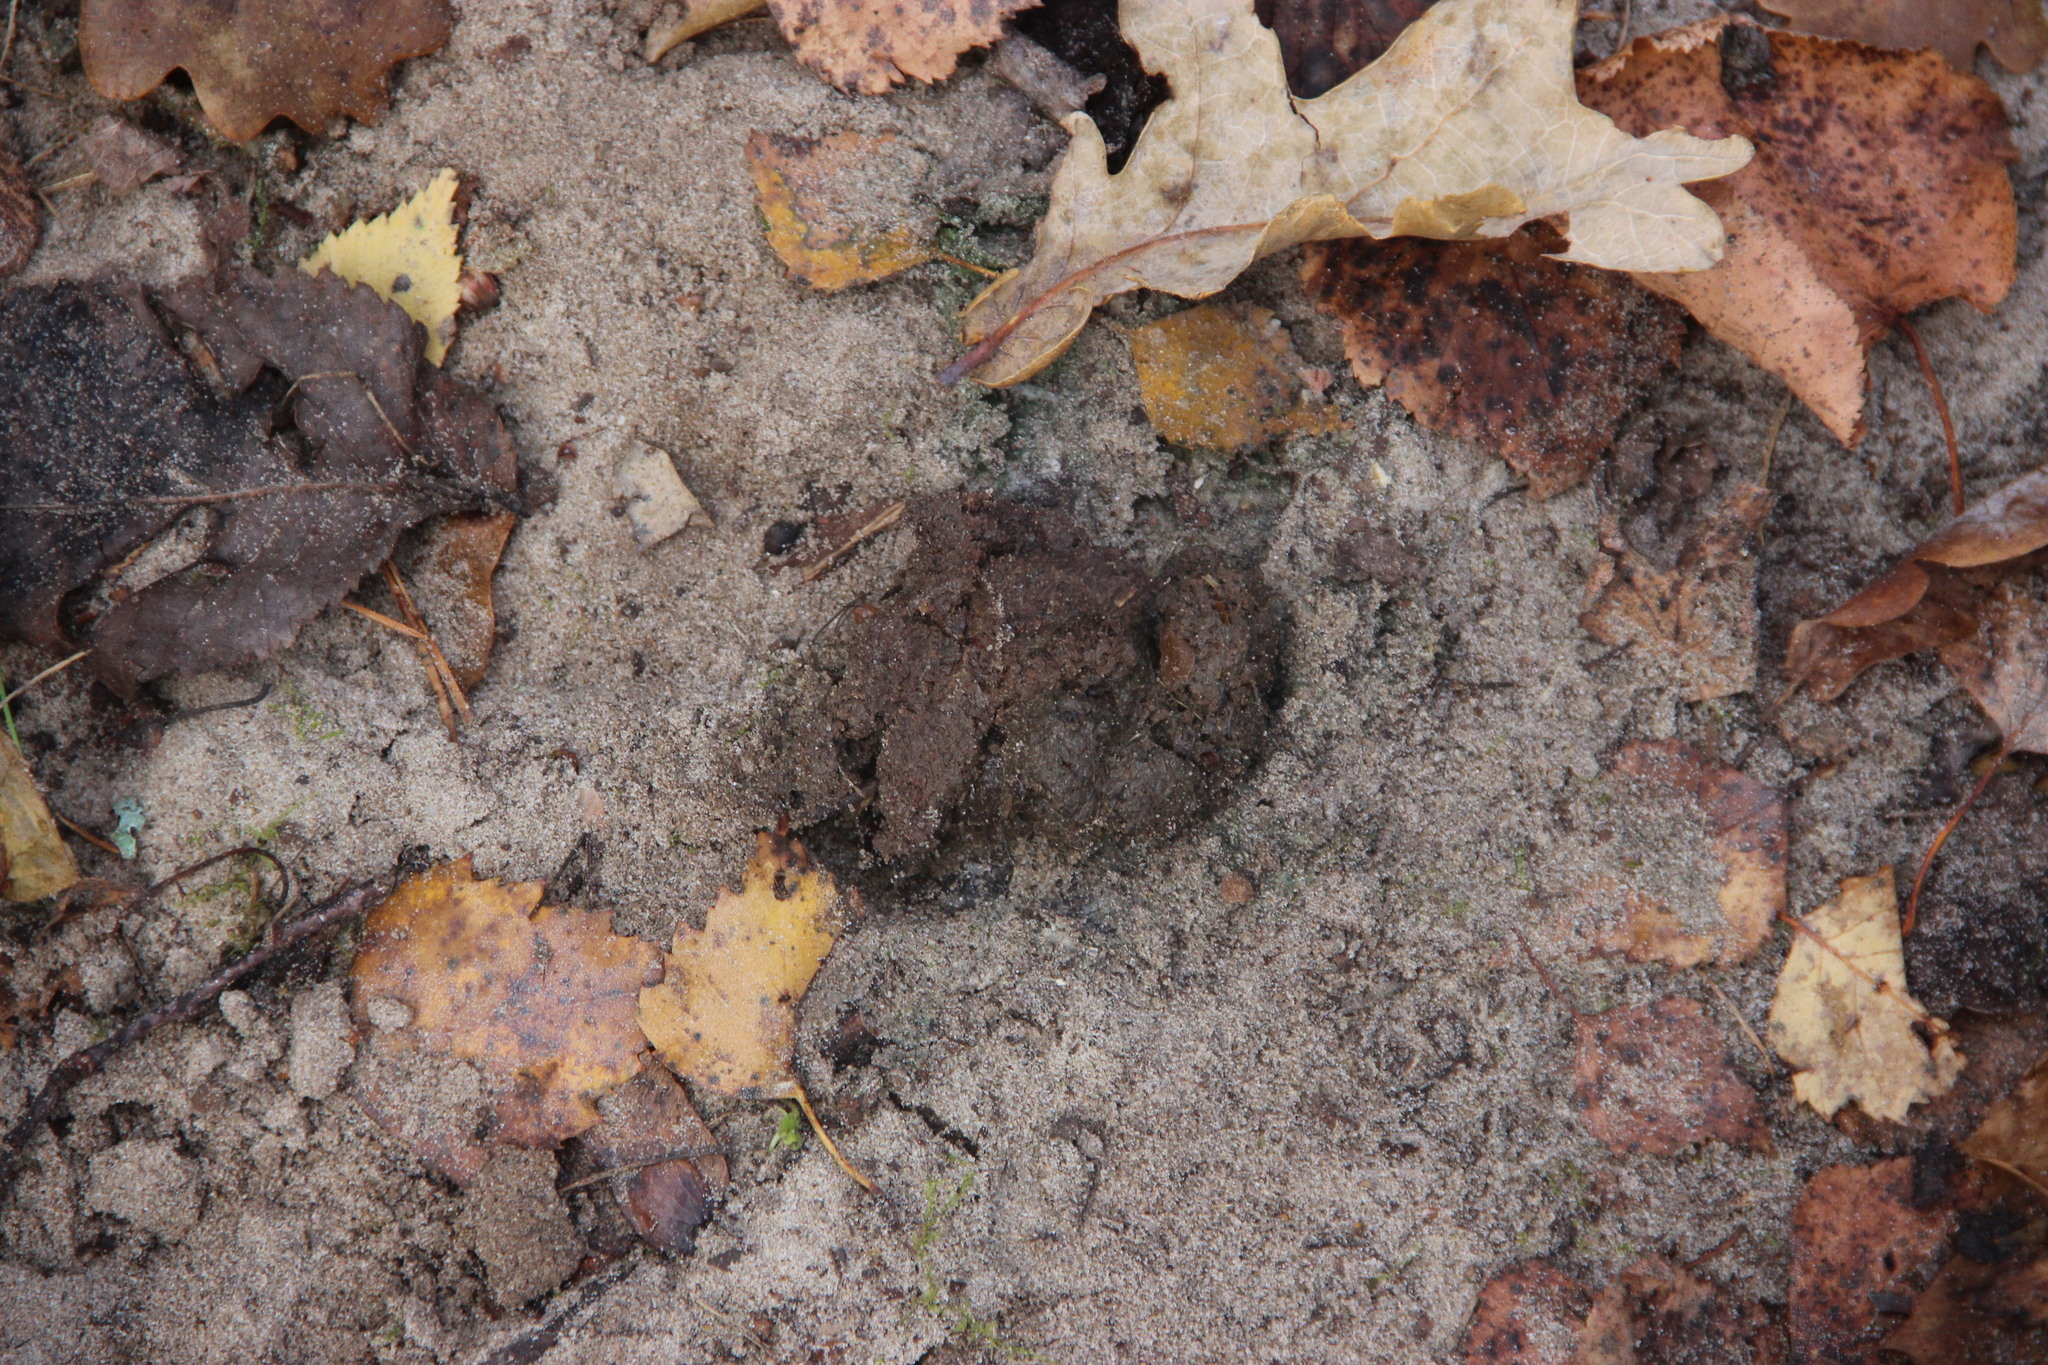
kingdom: Animalia
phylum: Chordata
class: Mammalia
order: Artiodactyla
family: Bovidae
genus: Bison
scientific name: Bison bonasus
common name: European bison
